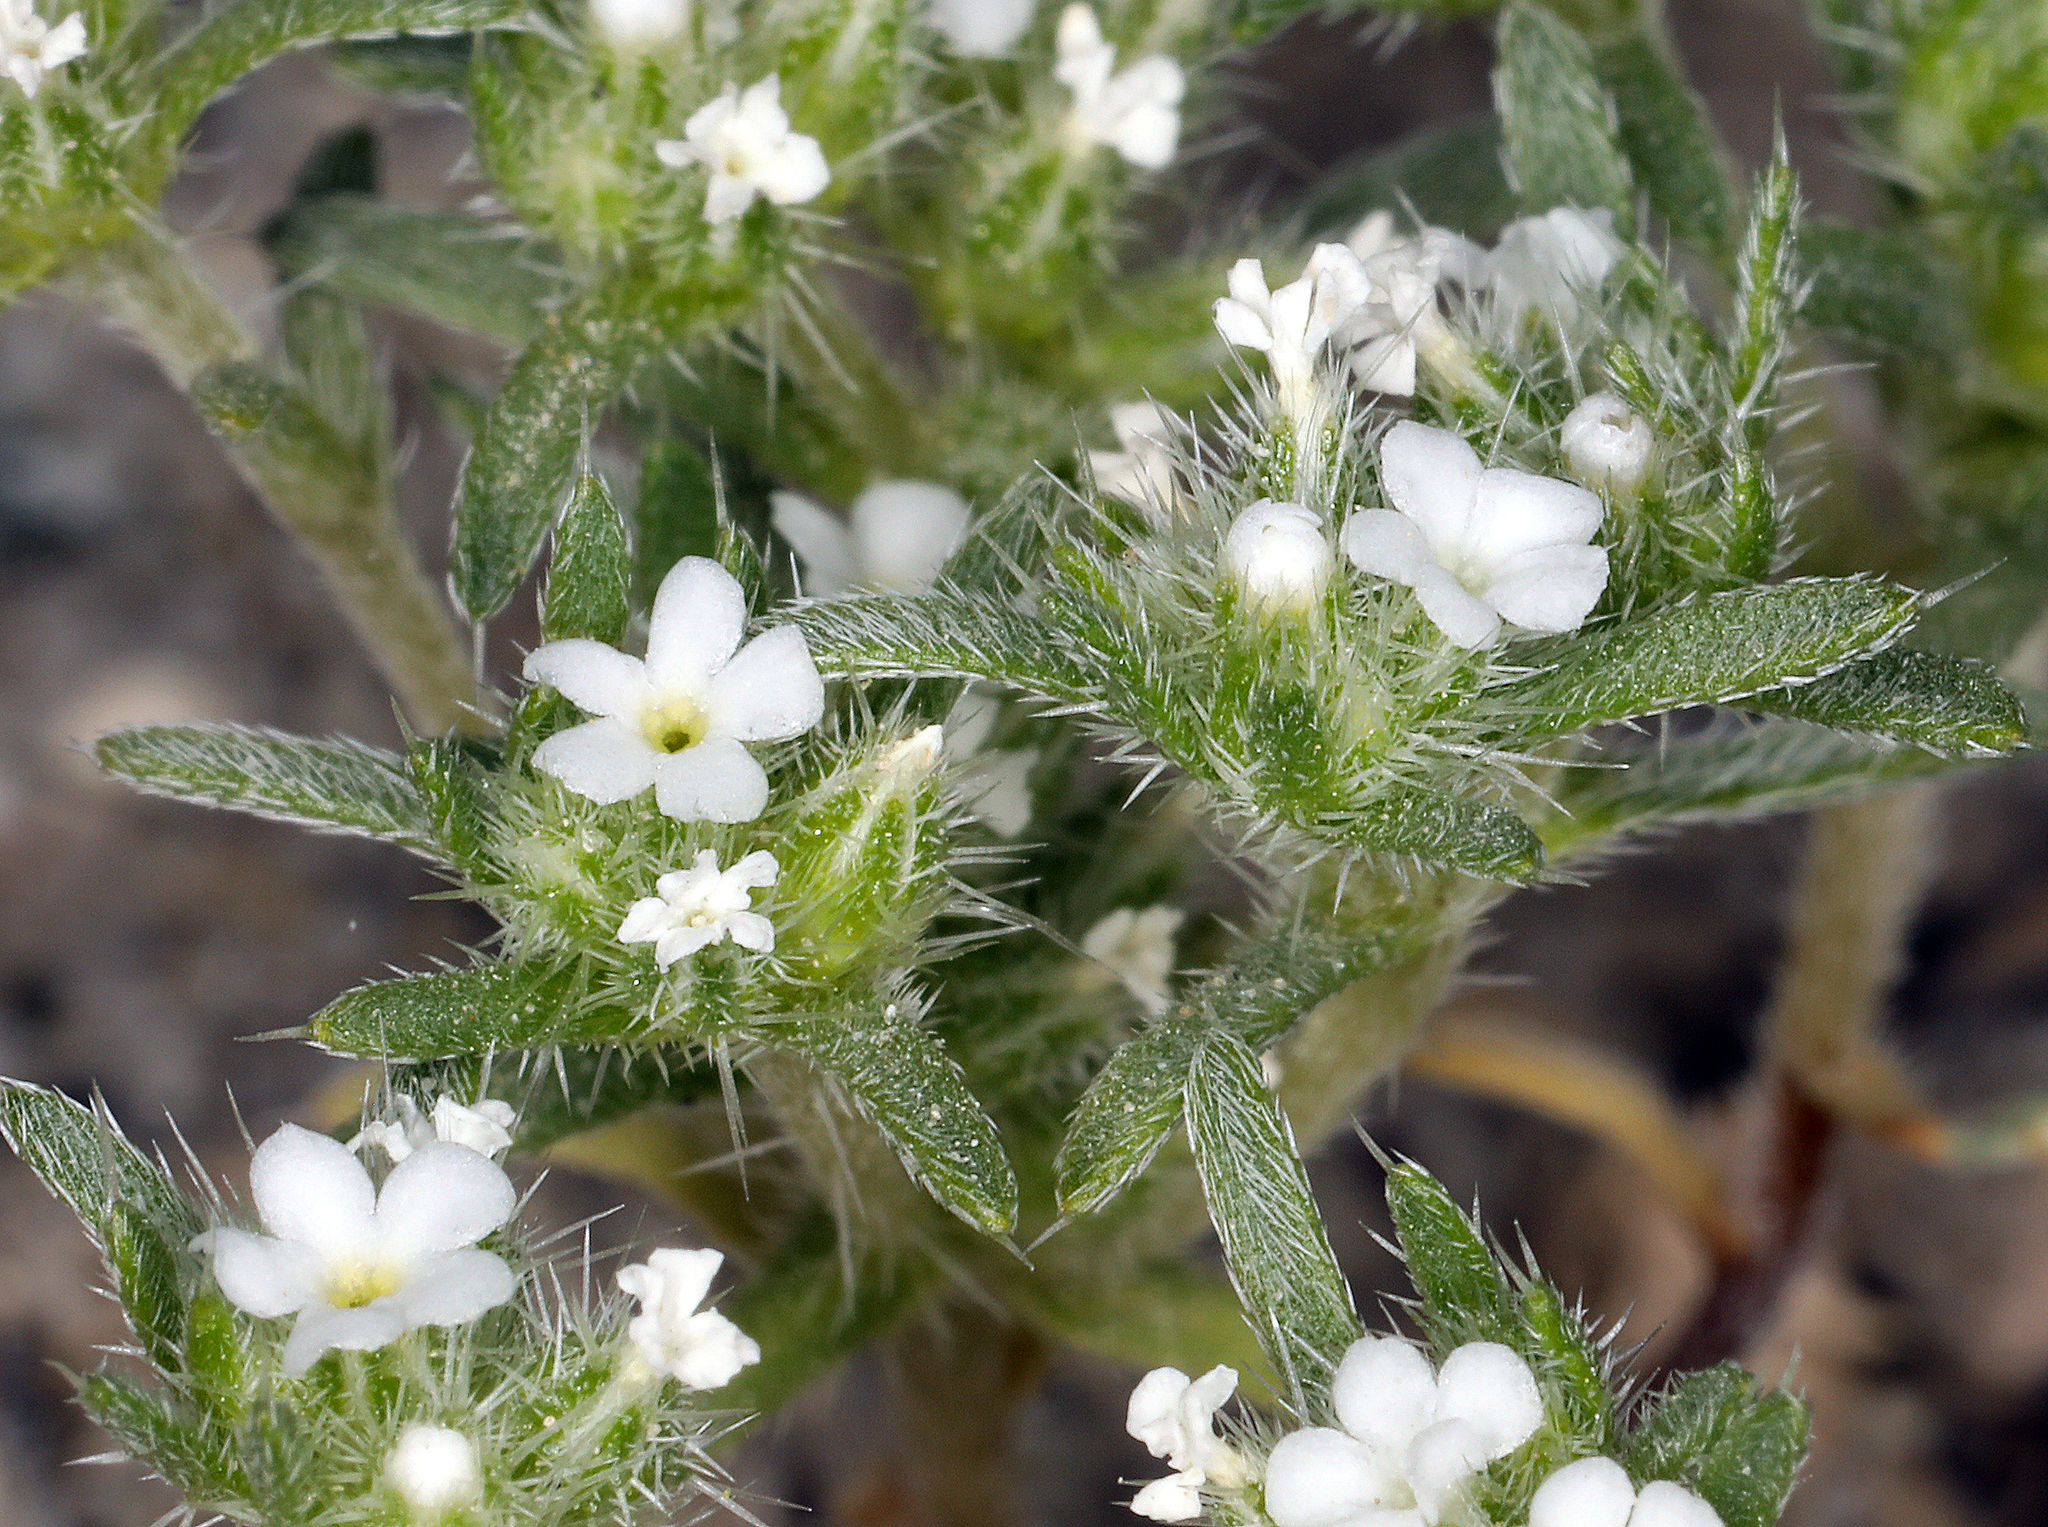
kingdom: Plantae
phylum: Tracheophyta
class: Magnoliopsida
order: Boraginales
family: Boraginaceae
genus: Greeneocharis
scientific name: Greeneocharis circumscissa
